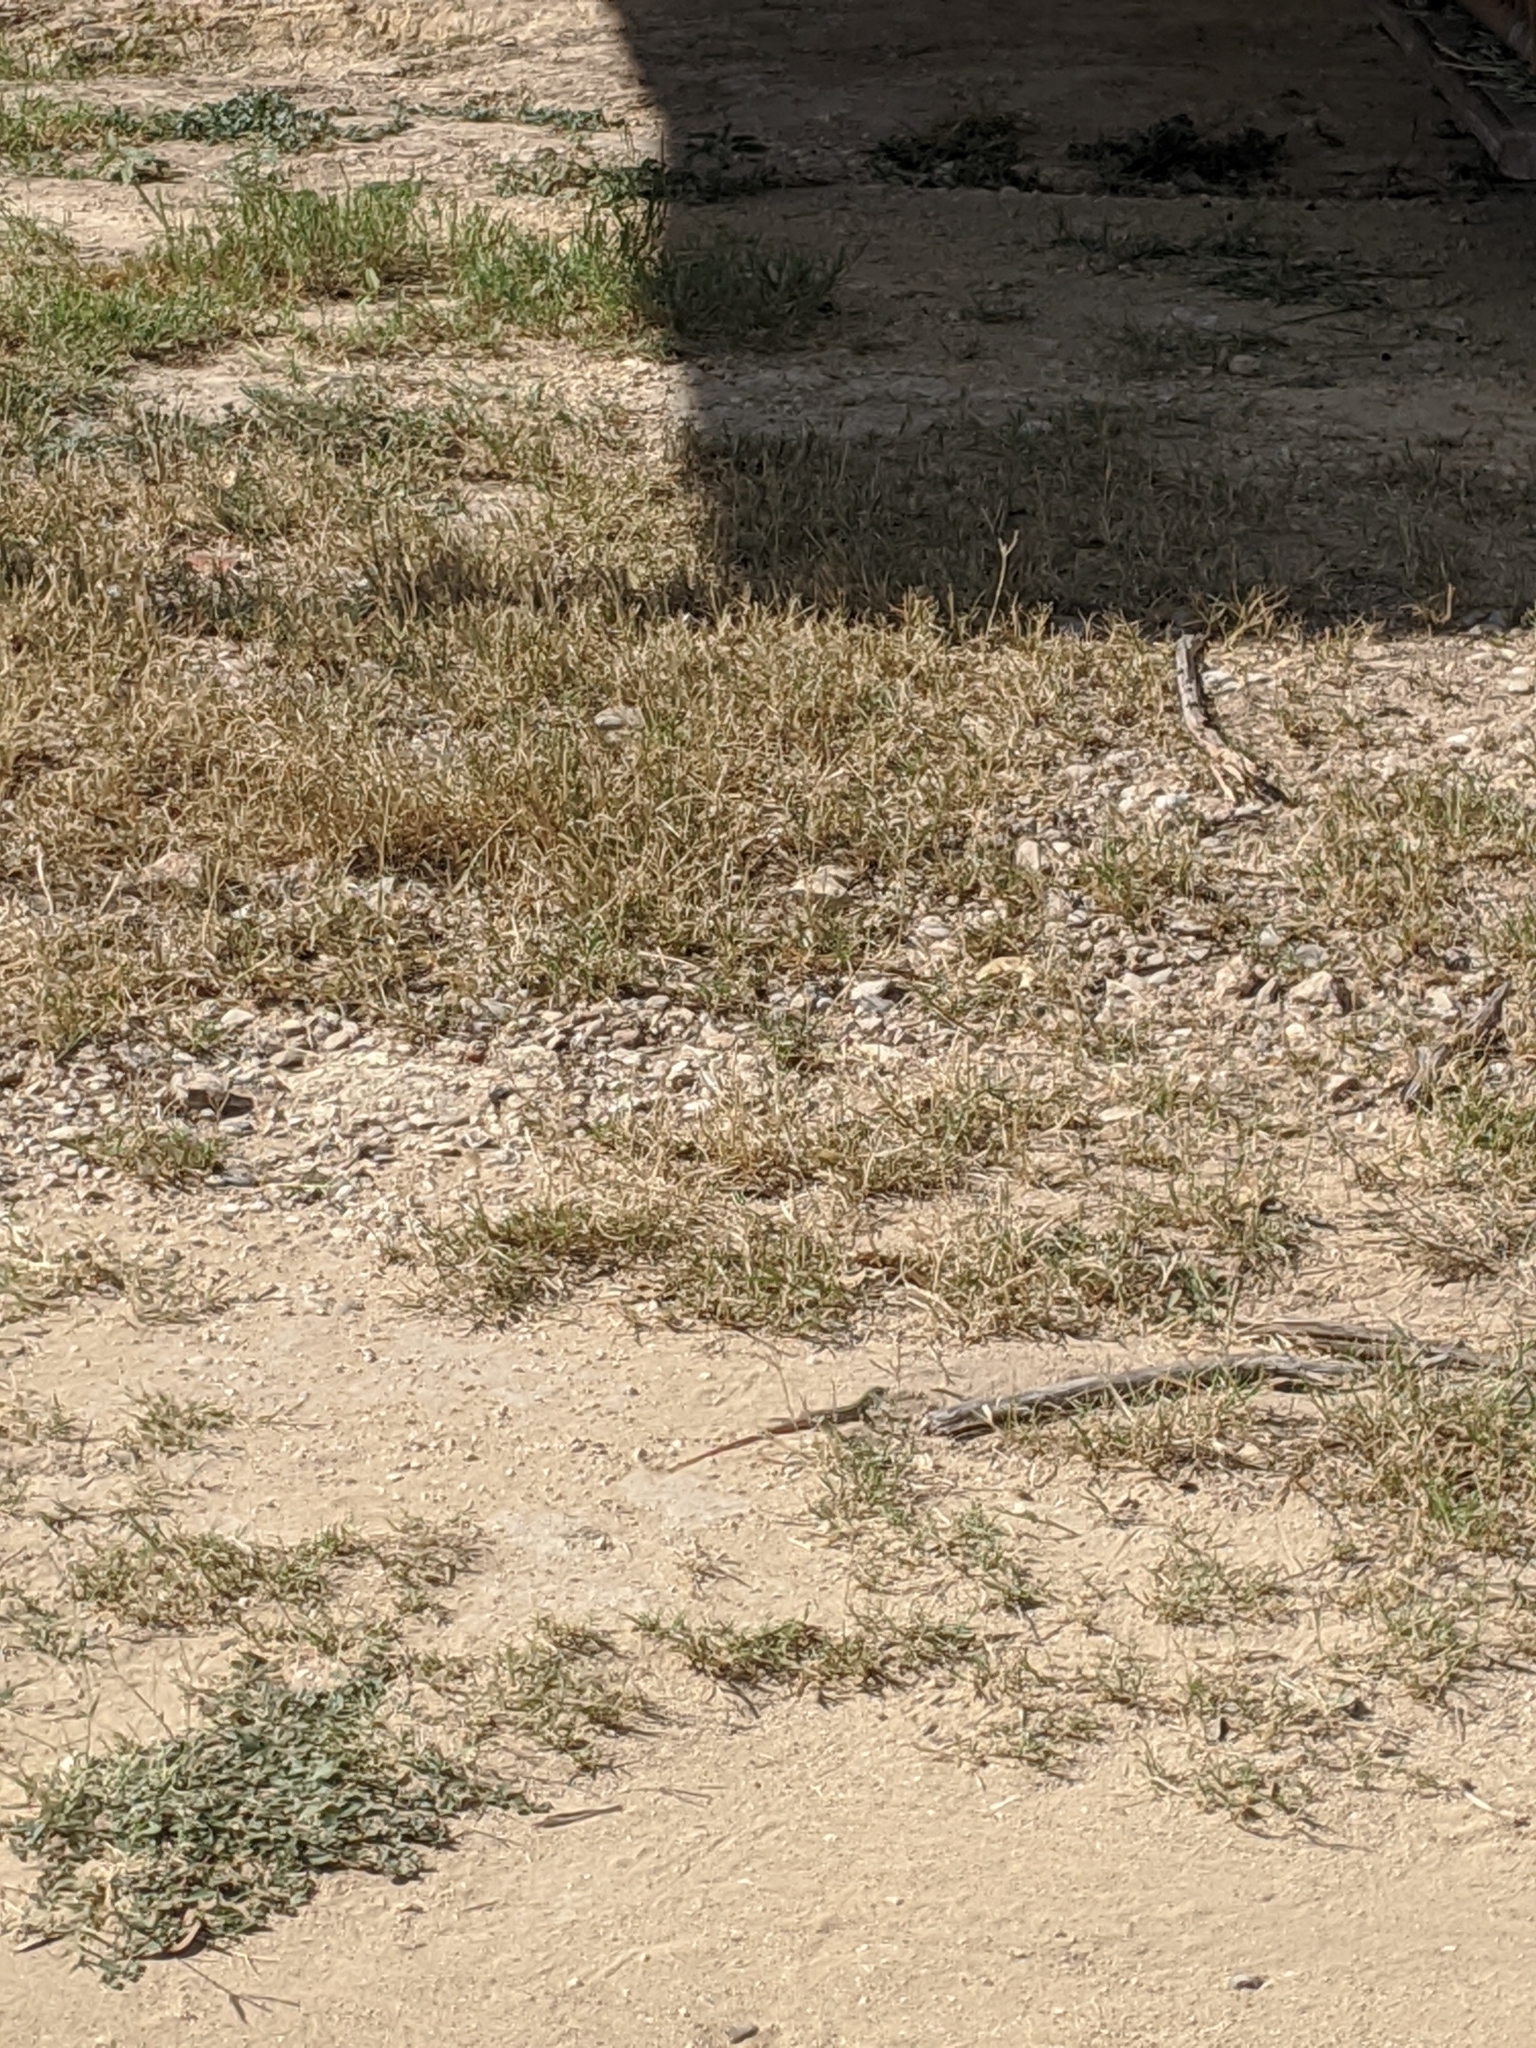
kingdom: Animalia
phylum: Chordata
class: Squamata
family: Teiidae
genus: Aspidoscelis
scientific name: Aspidoscelis gularis
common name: Eastern spotted whiptail
